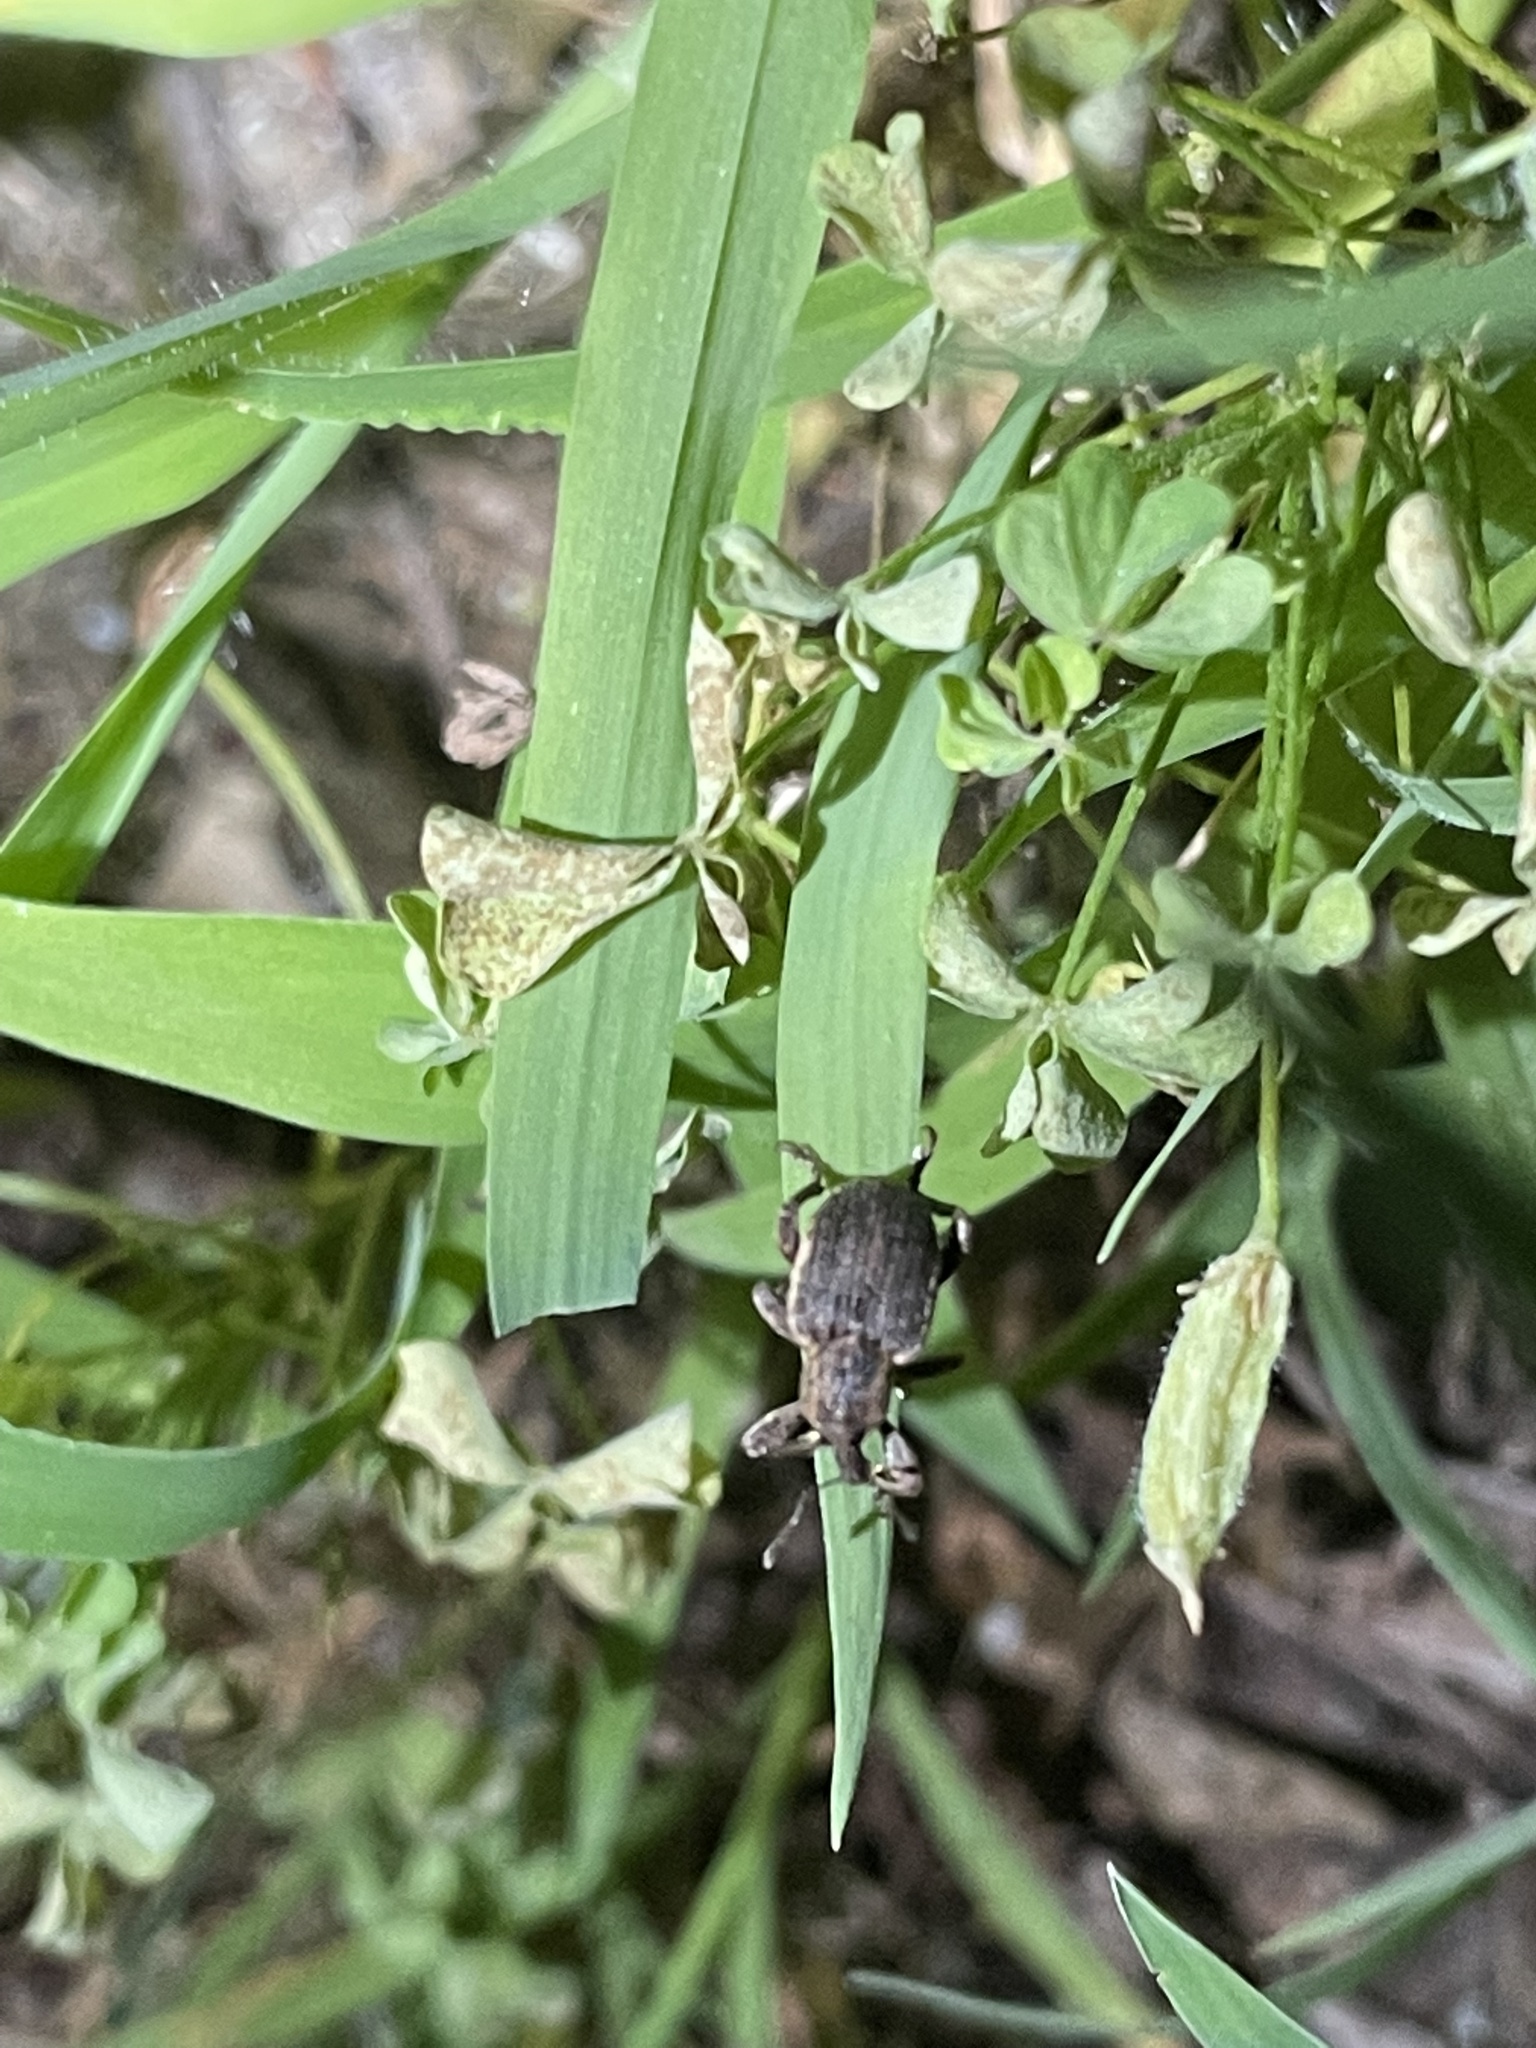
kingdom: Animalia
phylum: Arthropoda
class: Insecta
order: Coleoptera
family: Curculionidae
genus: Brachypera
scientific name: Brachypera zoilus
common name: Clover leaf weevil
